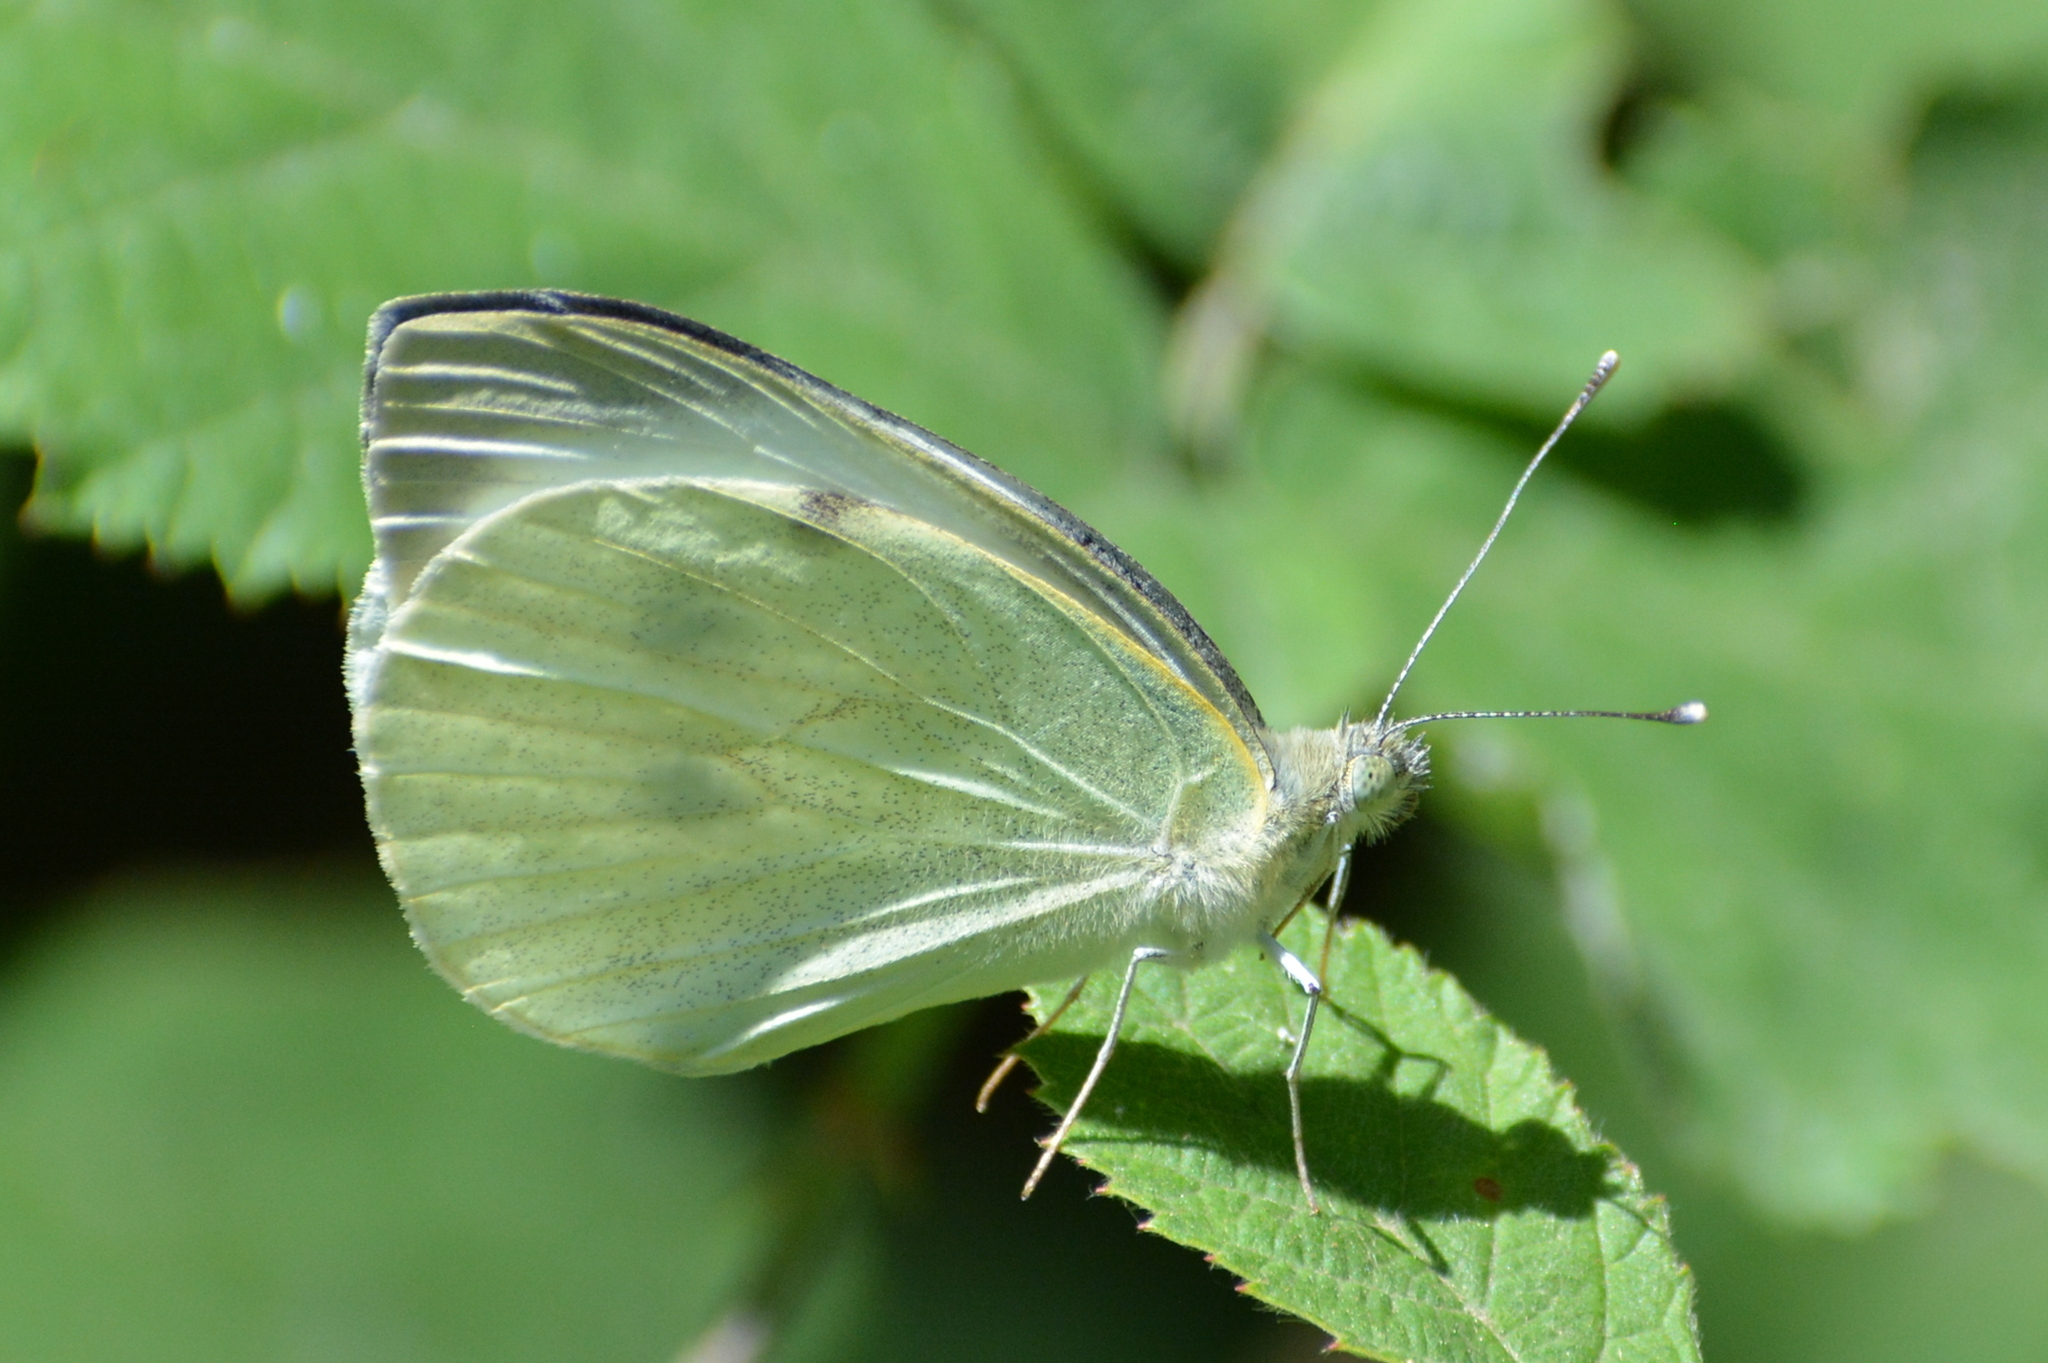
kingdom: Animalia
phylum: Arthropoda
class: Insecta
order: Lepidoptera
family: Pieridae
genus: Pieris
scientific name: Pieris brassicae
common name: Large white
